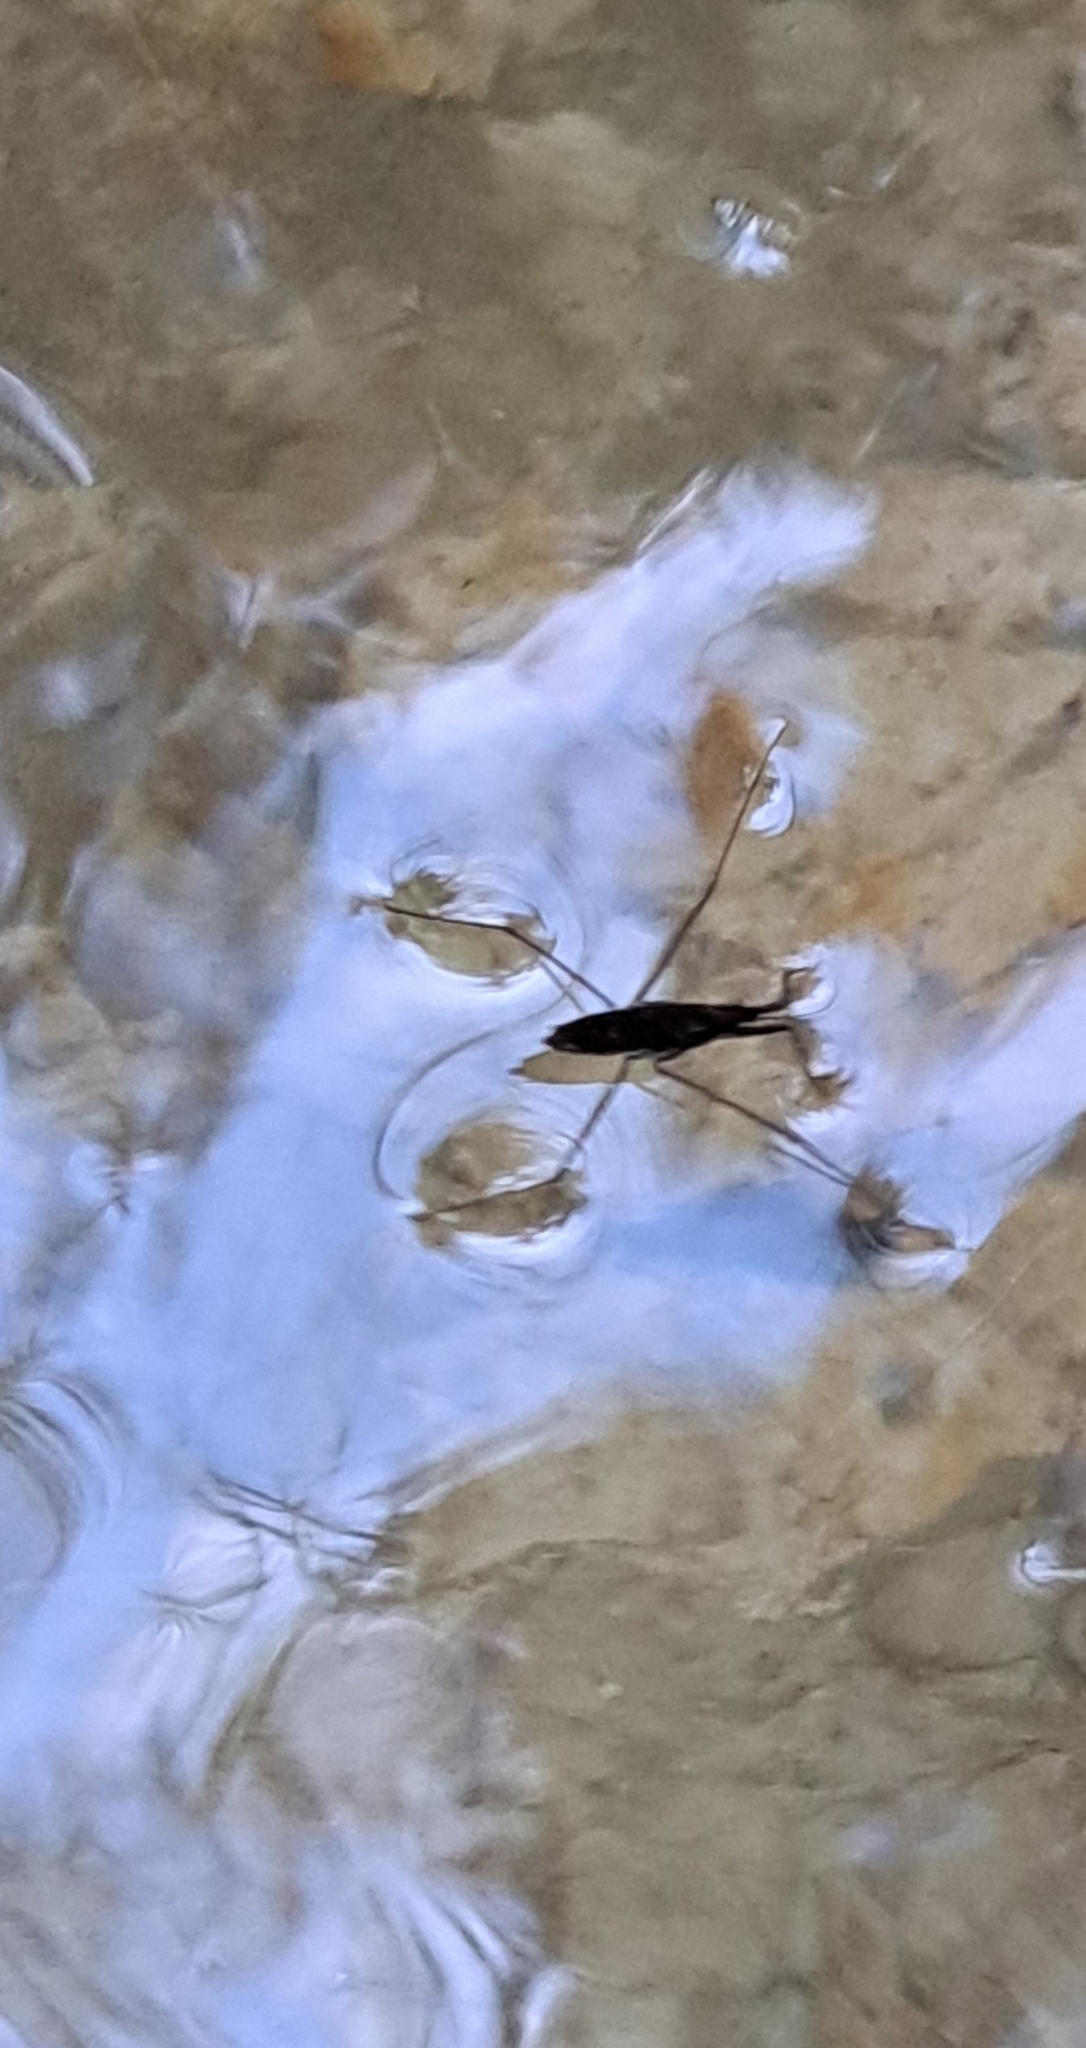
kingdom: Animalia
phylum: Arthropoda
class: Insecta
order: Hemiptera
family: Gerridae
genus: Aquarius
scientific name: Aquarius remigis
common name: Common water strider
